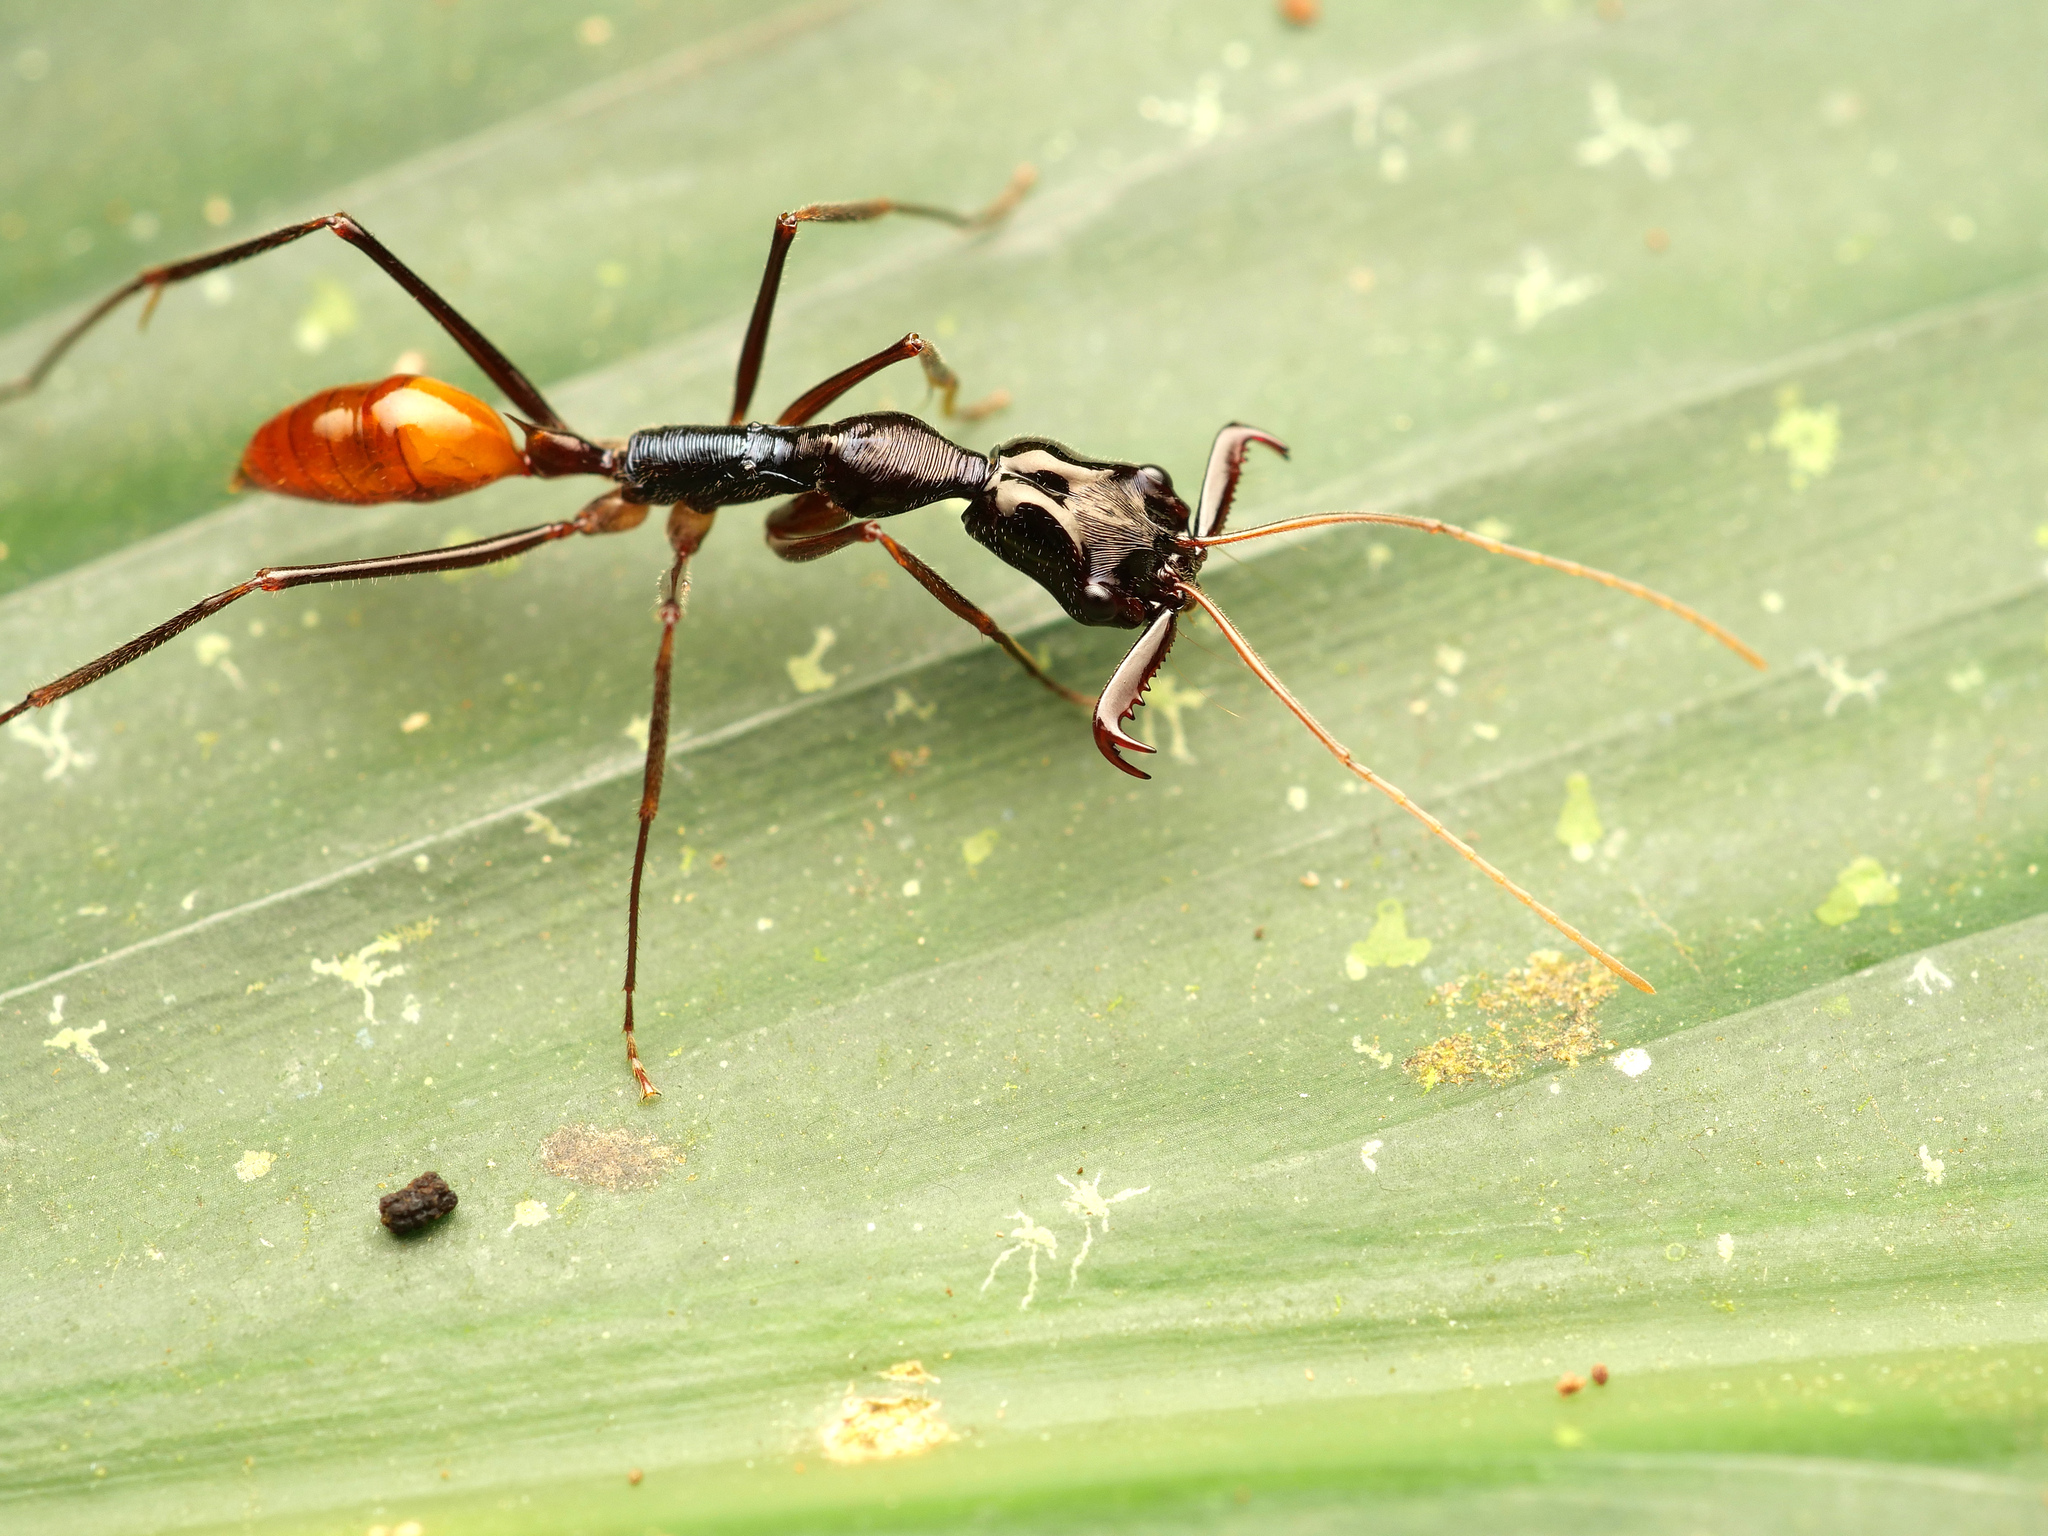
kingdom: Animalia
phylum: Arthropoda
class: Insecta
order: Hymenoptera
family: Formicidae
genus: Odontomachus
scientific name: Odontomachus tyrannicus
